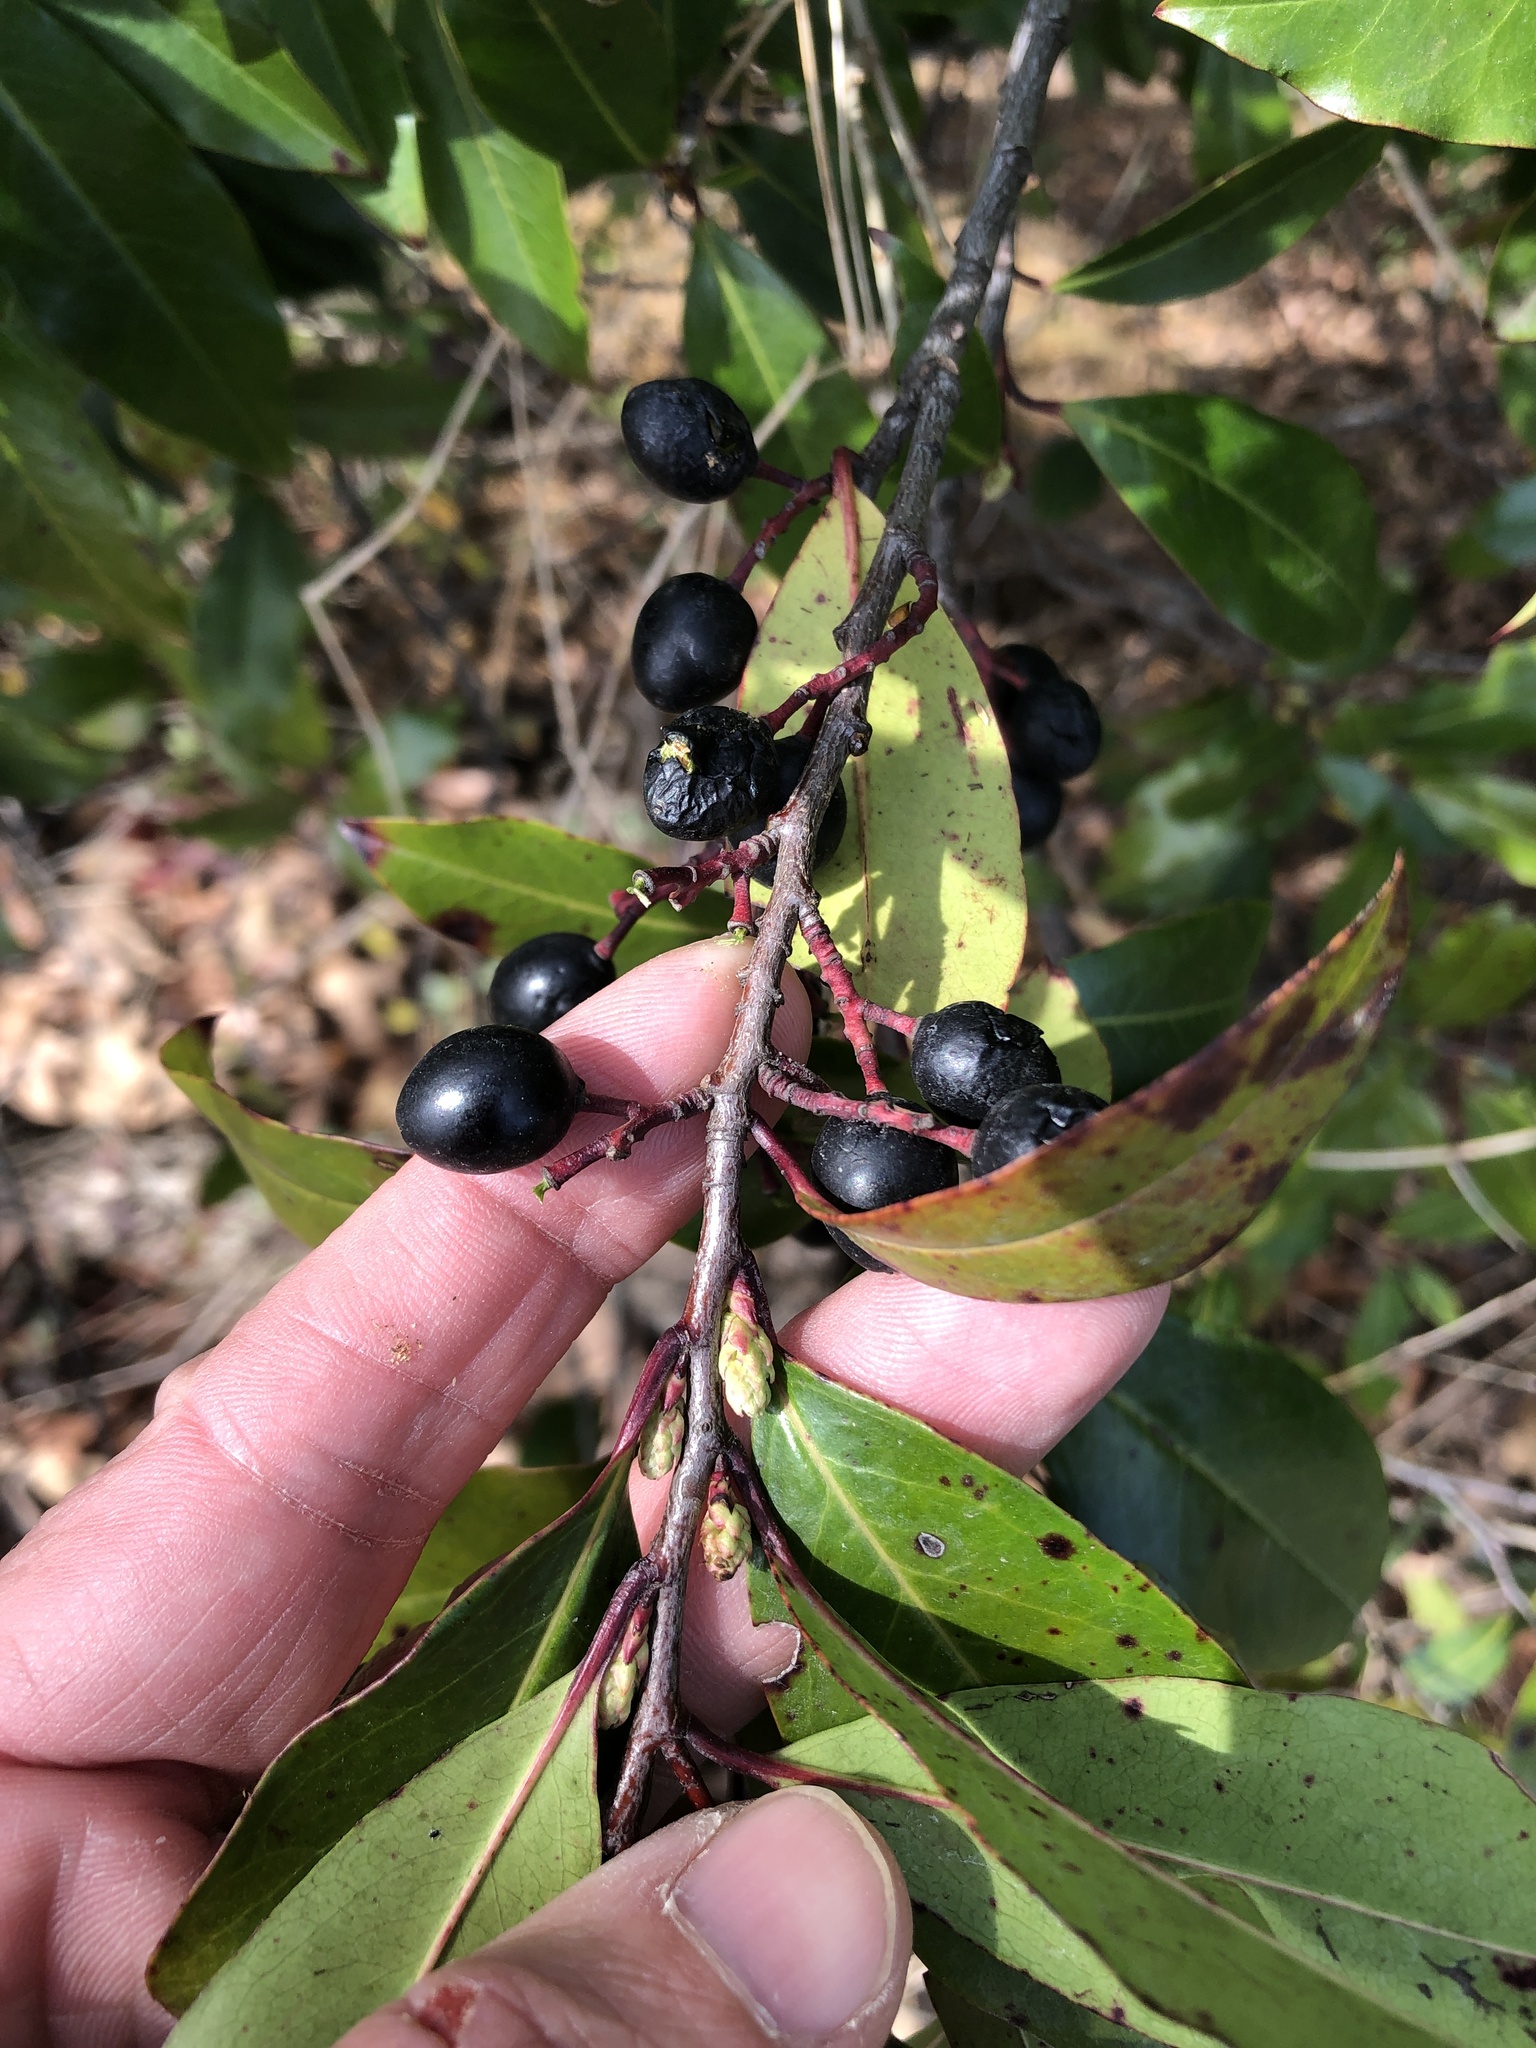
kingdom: Plantae
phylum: Tracheophyta
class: Magnoliopsida
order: Rosales
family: Rosaceae
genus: Prunus
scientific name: Prunus caroliniana
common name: Carolina laurel cherry
